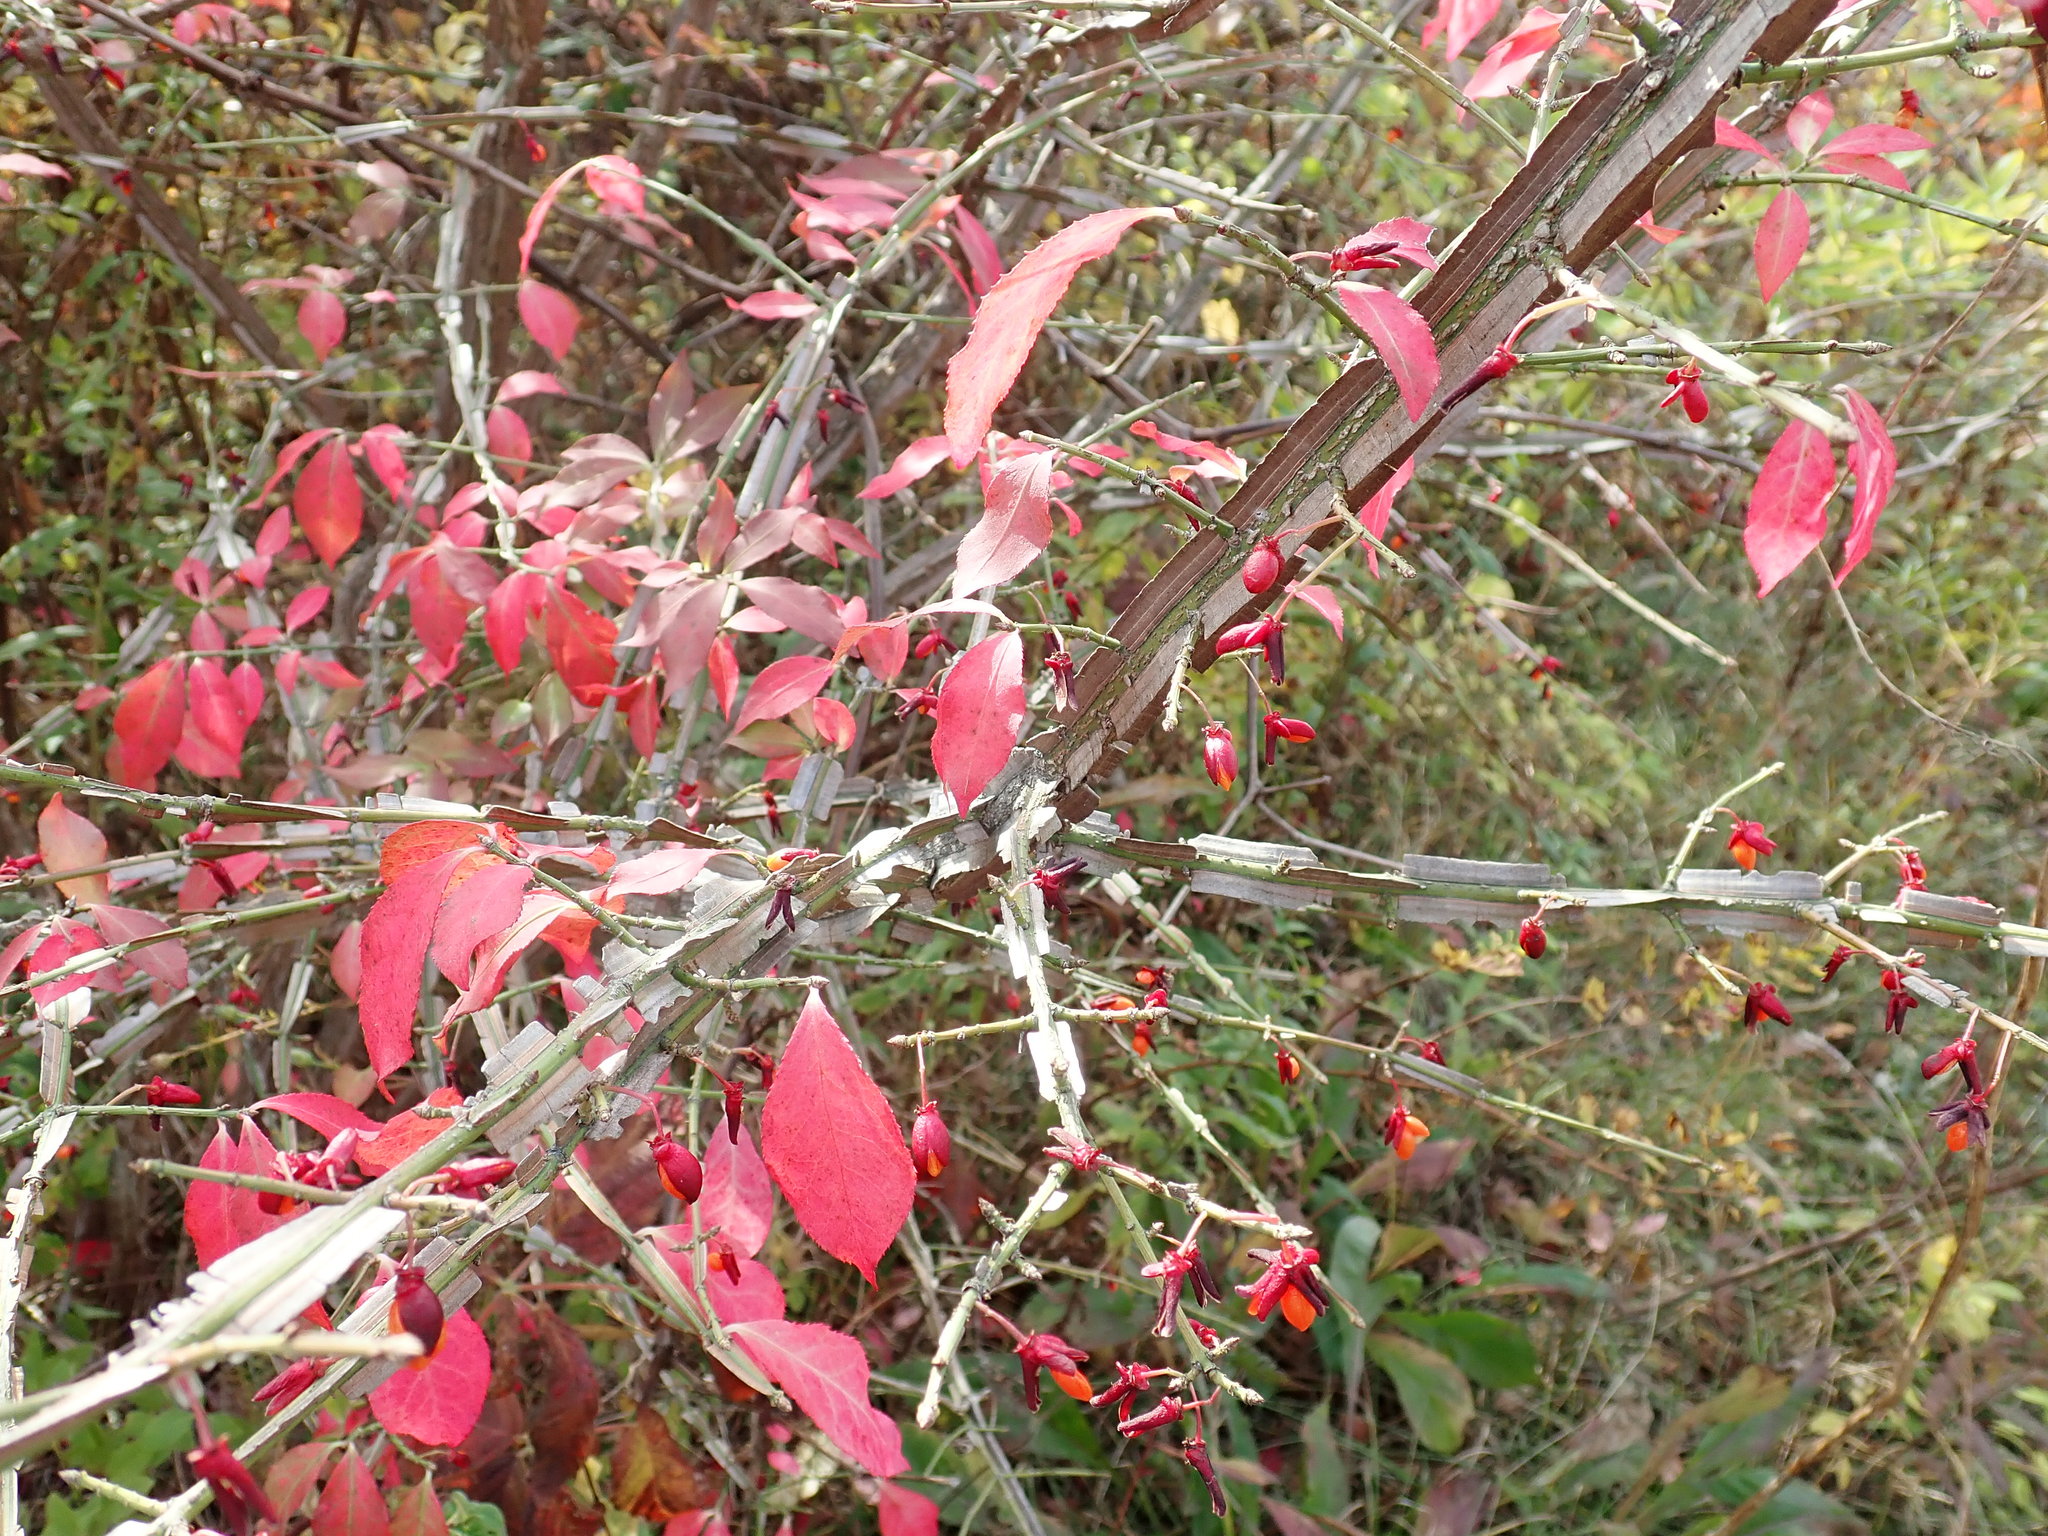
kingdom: Plantae
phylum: Tracheophyta
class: Magnoliopsida
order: Celastrales
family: Celastraceae
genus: Euonymus
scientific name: Euonymus alatus
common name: Winged euonymus
